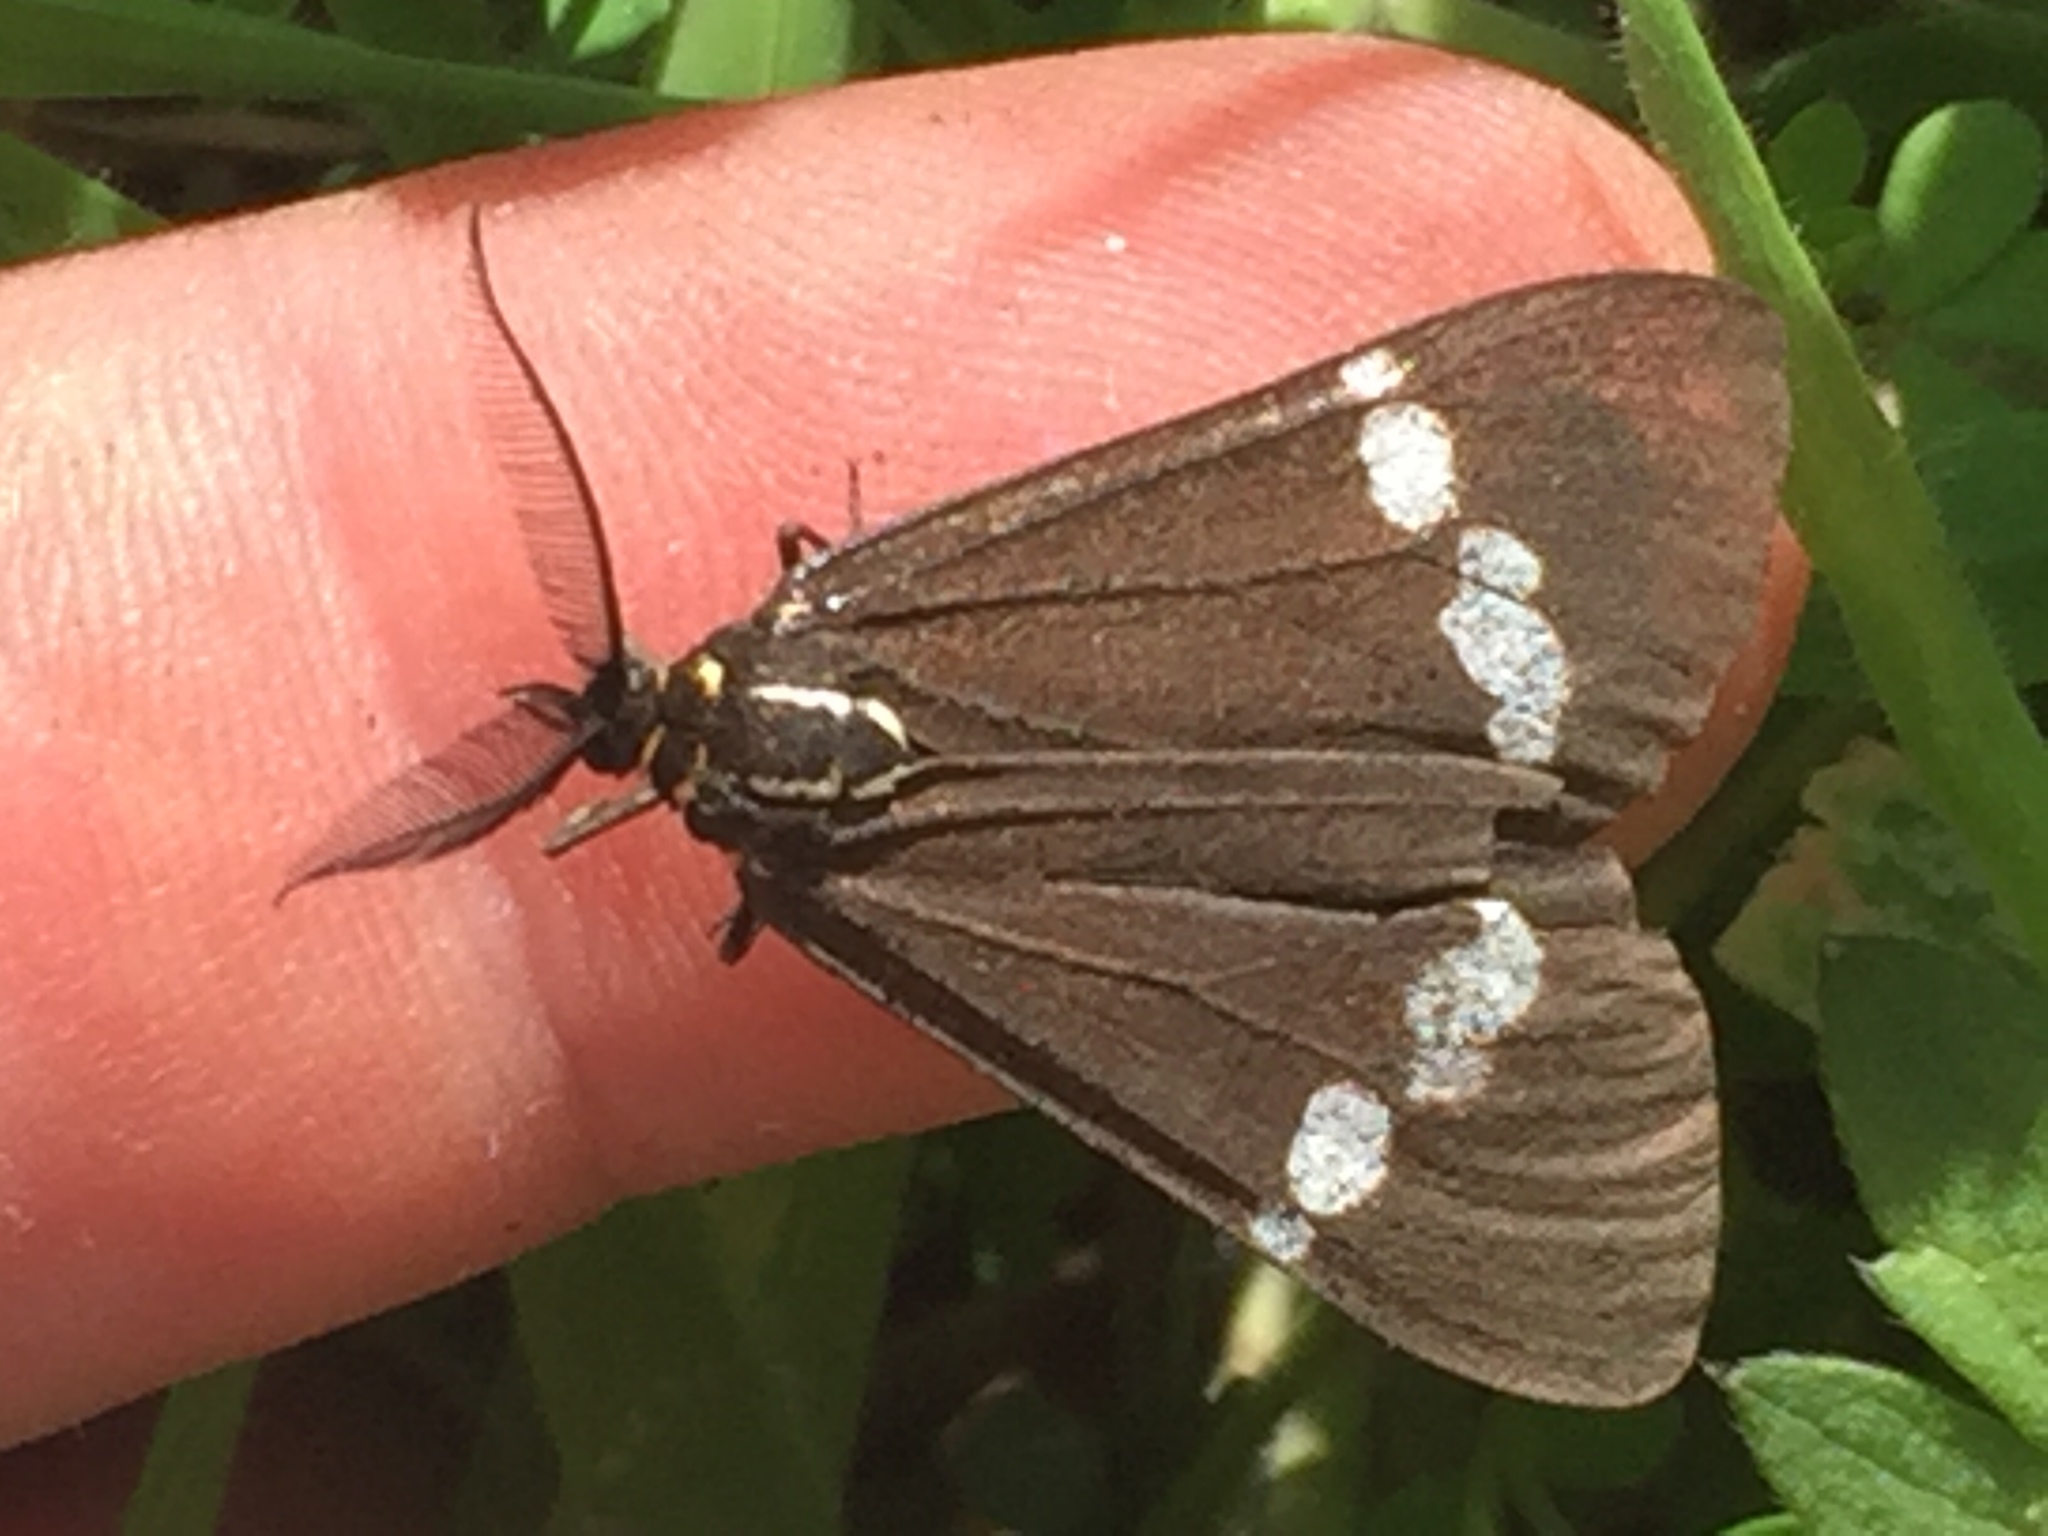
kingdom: Animalia
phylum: Arthropoda
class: Insecta
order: Lepidoptera
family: Erebidae
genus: Nyctemera
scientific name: Nyctemera annulatum
